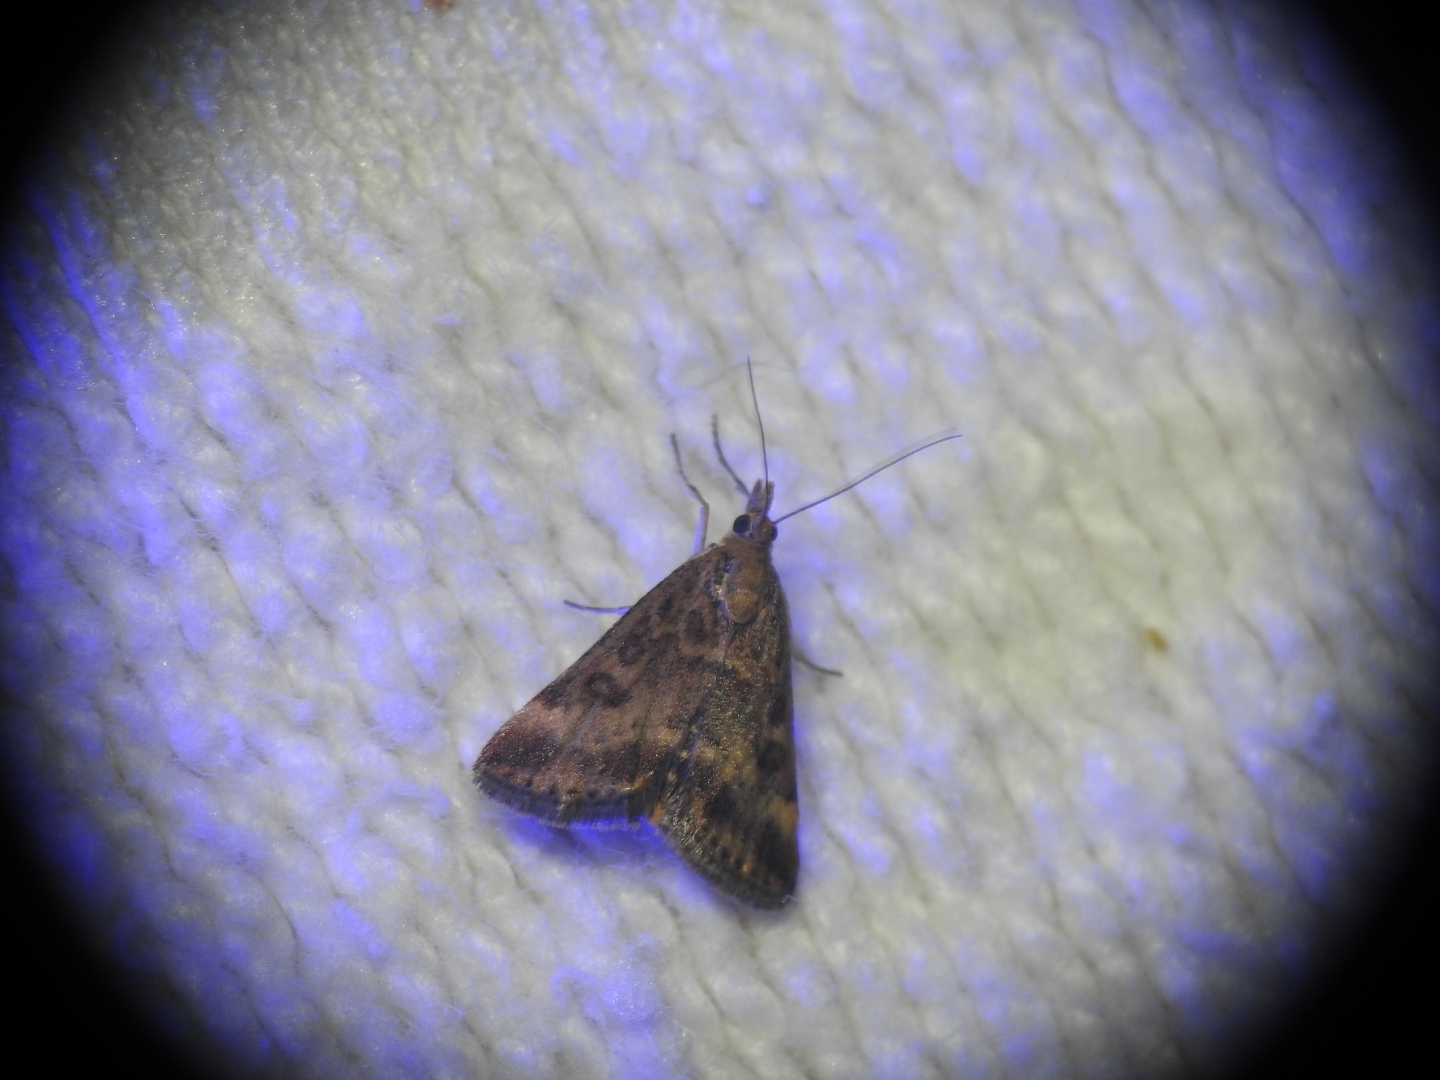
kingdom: Animalia
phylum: Arthropoda
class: Insecta
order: Lepidoptera
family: Crambidae
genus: Pyrausta
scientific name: Pyrausta despicata
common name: Straw-barred pearl
